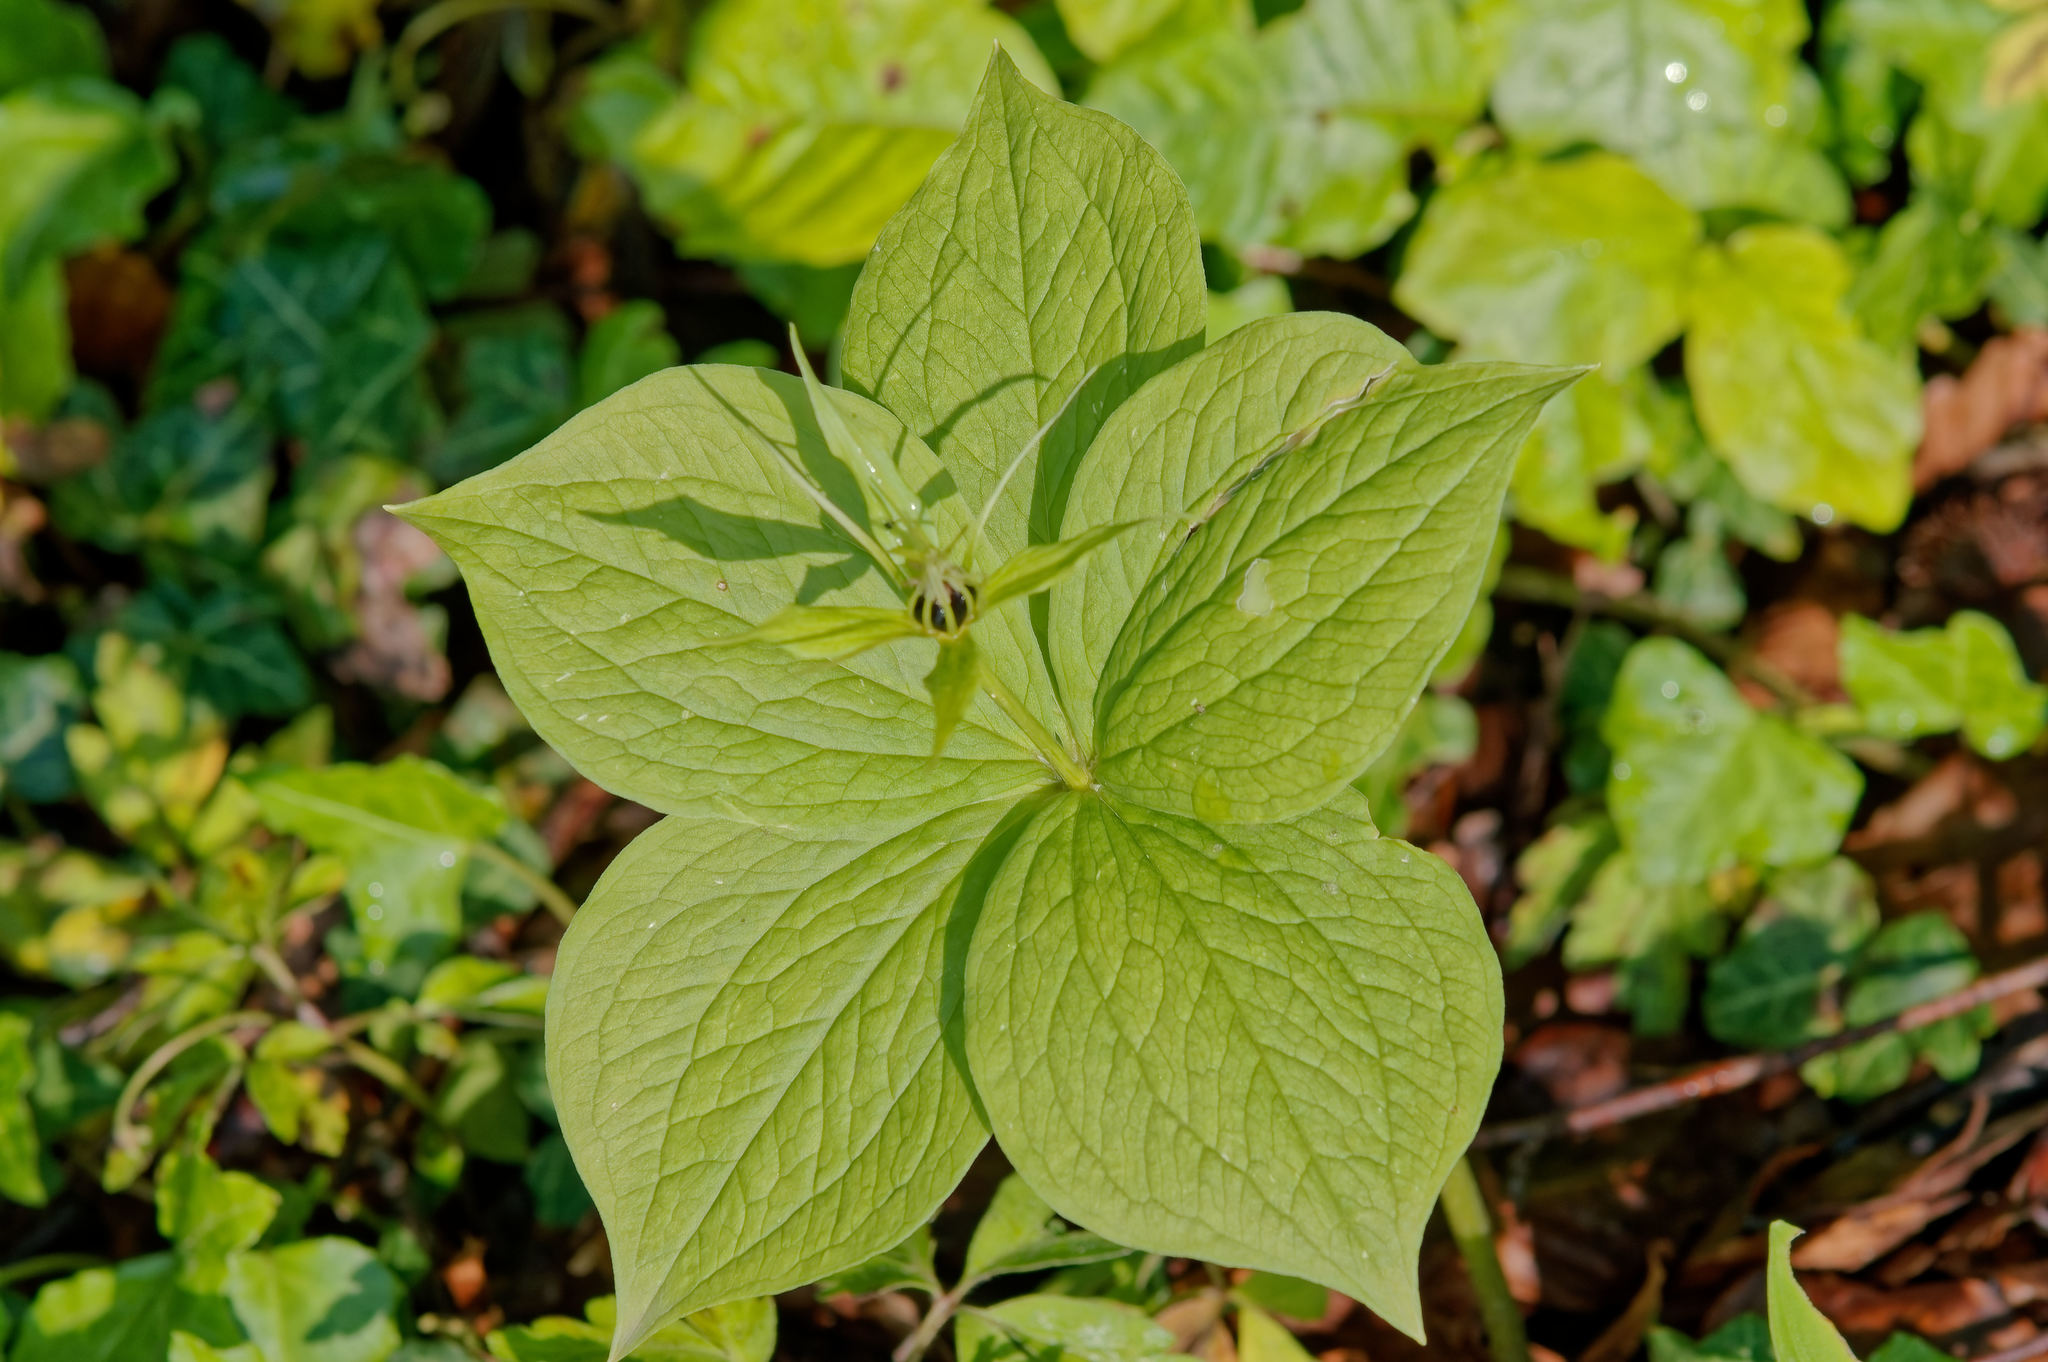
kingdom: Plantae
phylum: Tracheophyta
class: Liliopsida
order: Liliales
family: Melanthiaceae
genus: Paris
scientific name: Paris quadrifolia
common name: Herb-paris
